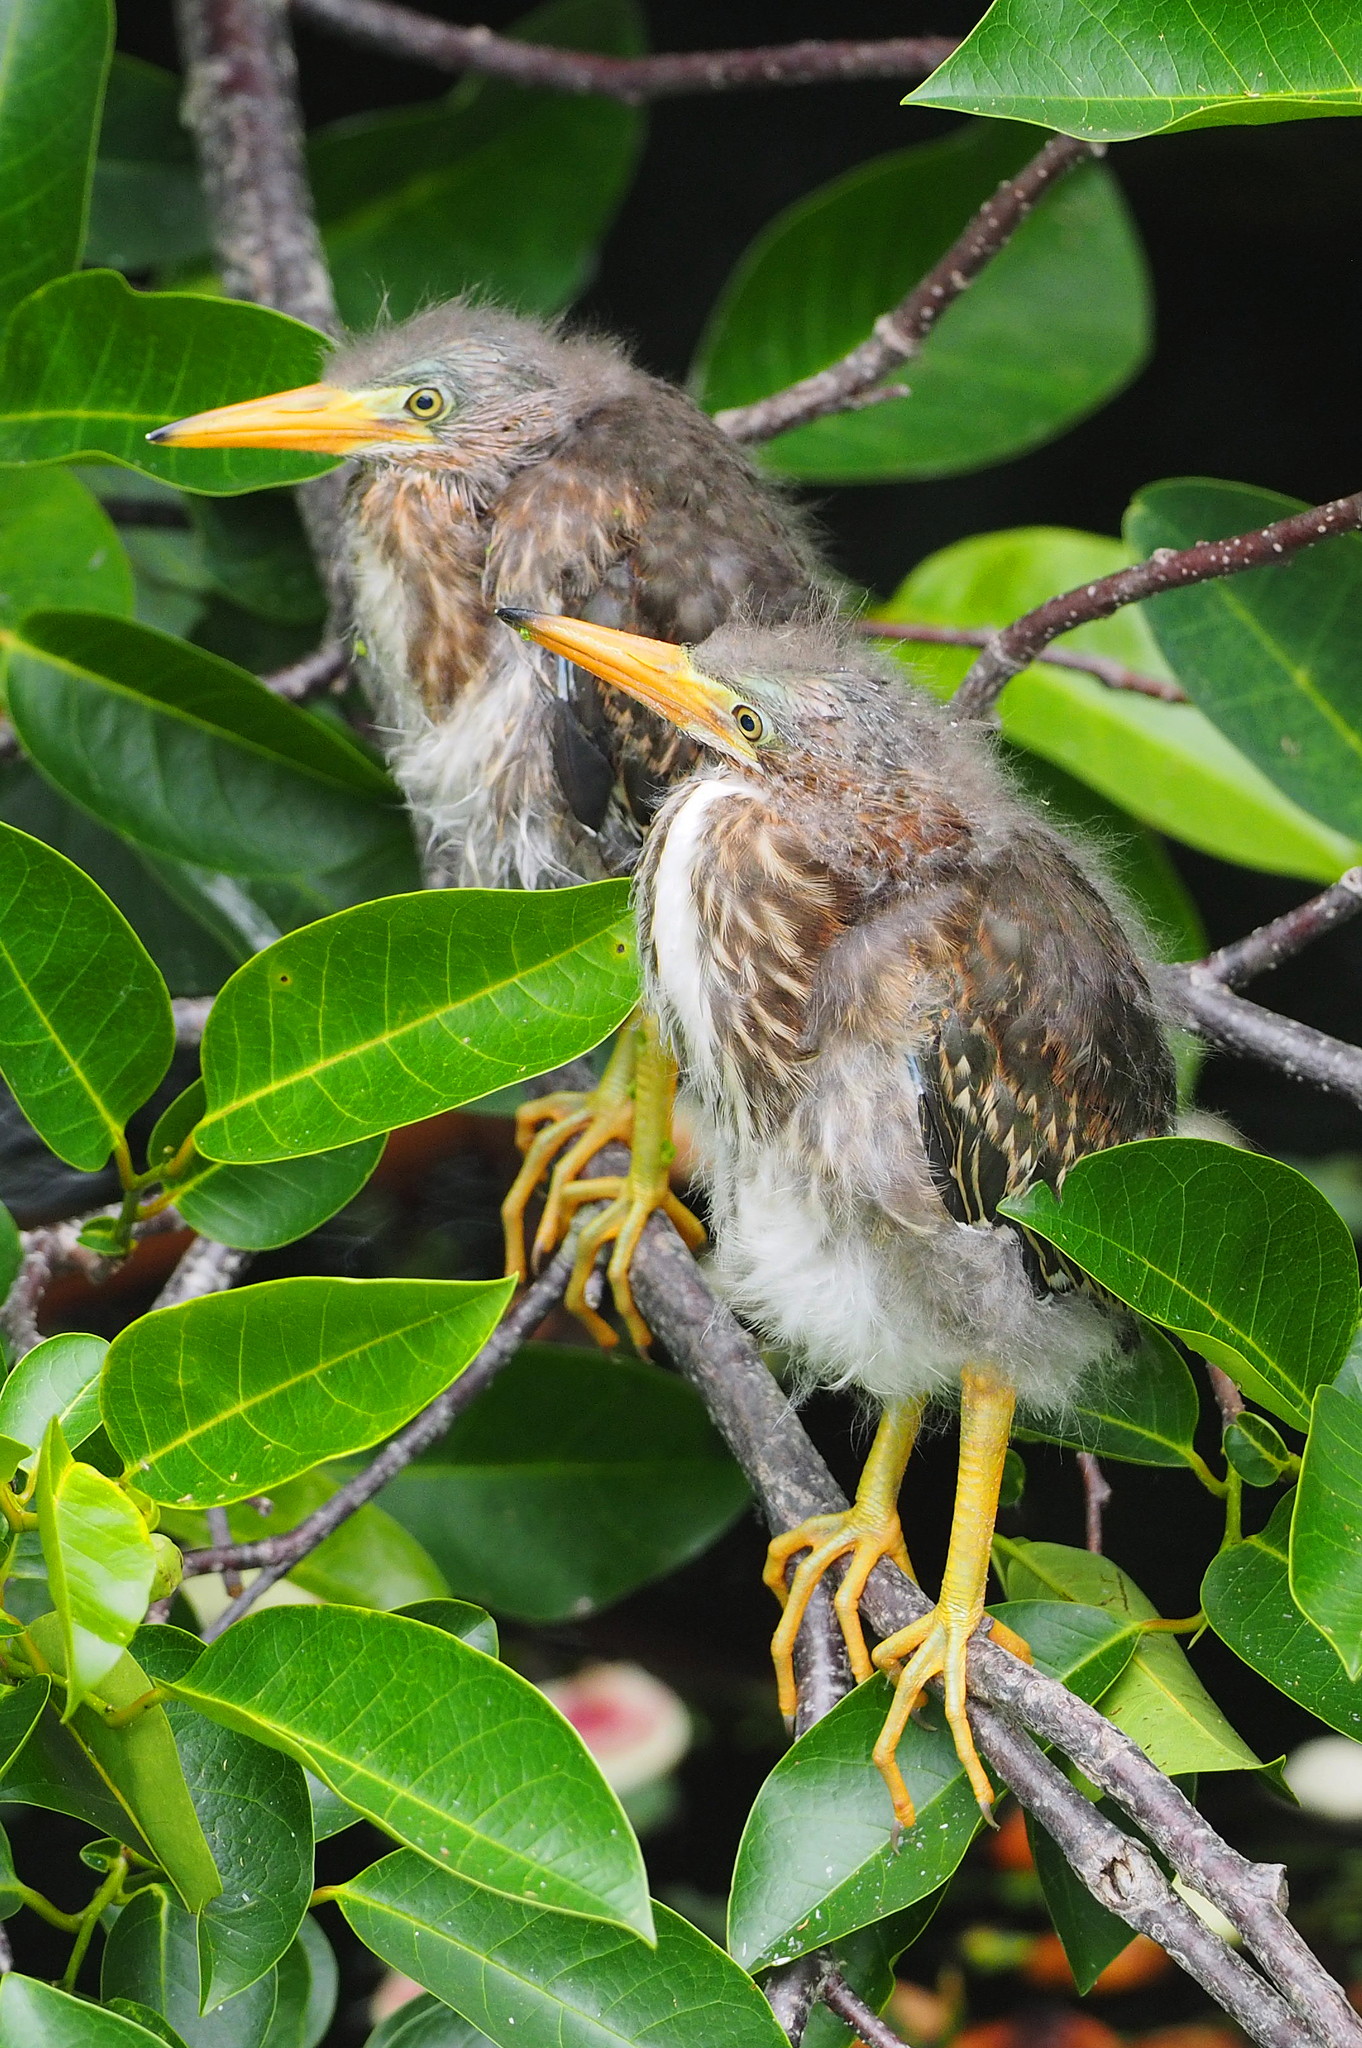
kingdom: Animalia
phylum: Chordata
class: Aves
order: Pelecaniformes
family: Ardeidae
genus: Butorides
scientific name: Butorides virescens
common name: Green heron
